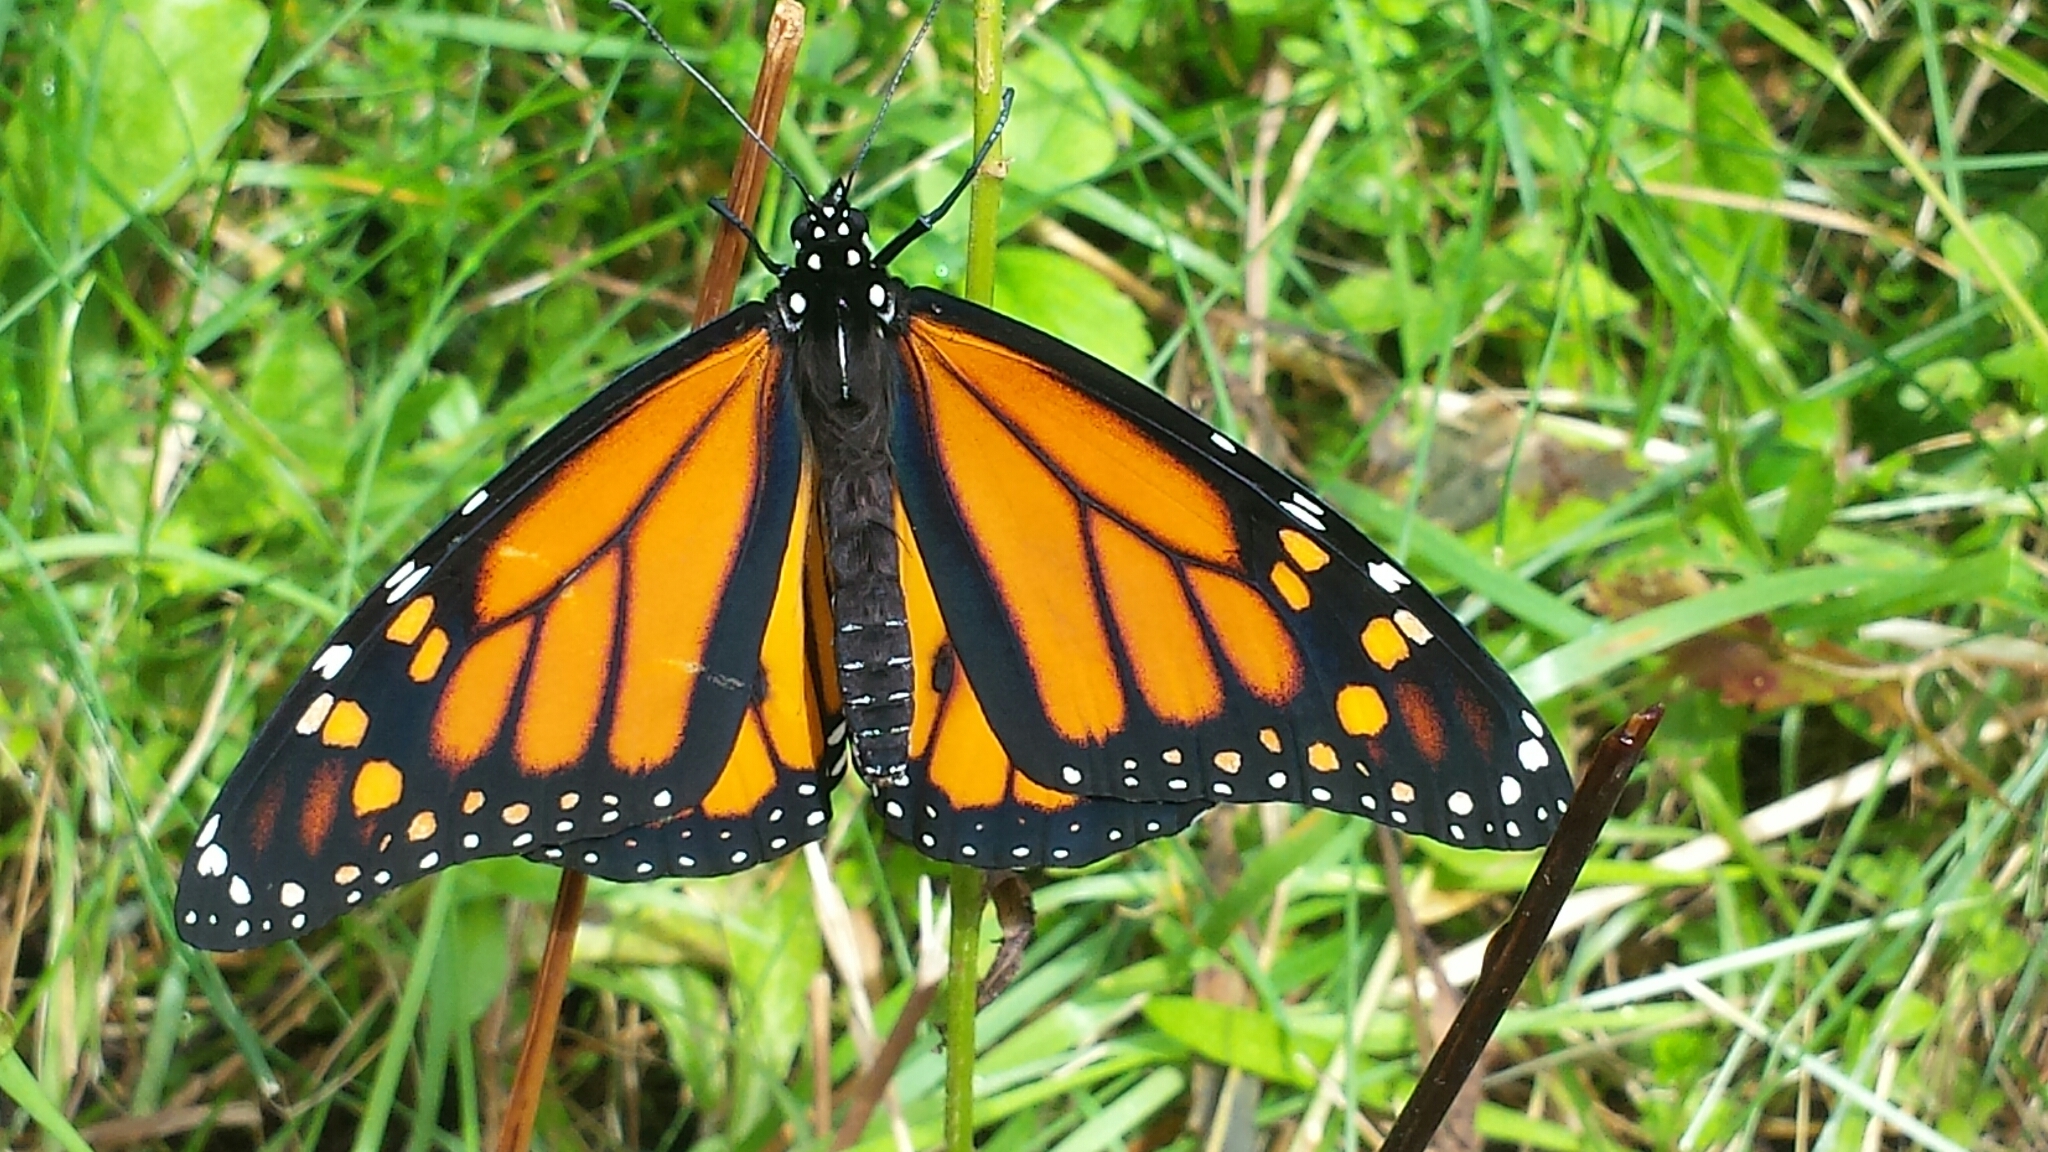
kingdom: Animalia
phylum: Arthropoda
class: Insecta
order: Lepidoptera
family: Nymphalidae
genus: Danaus
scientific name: Danaus plexippus
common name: Monarch
